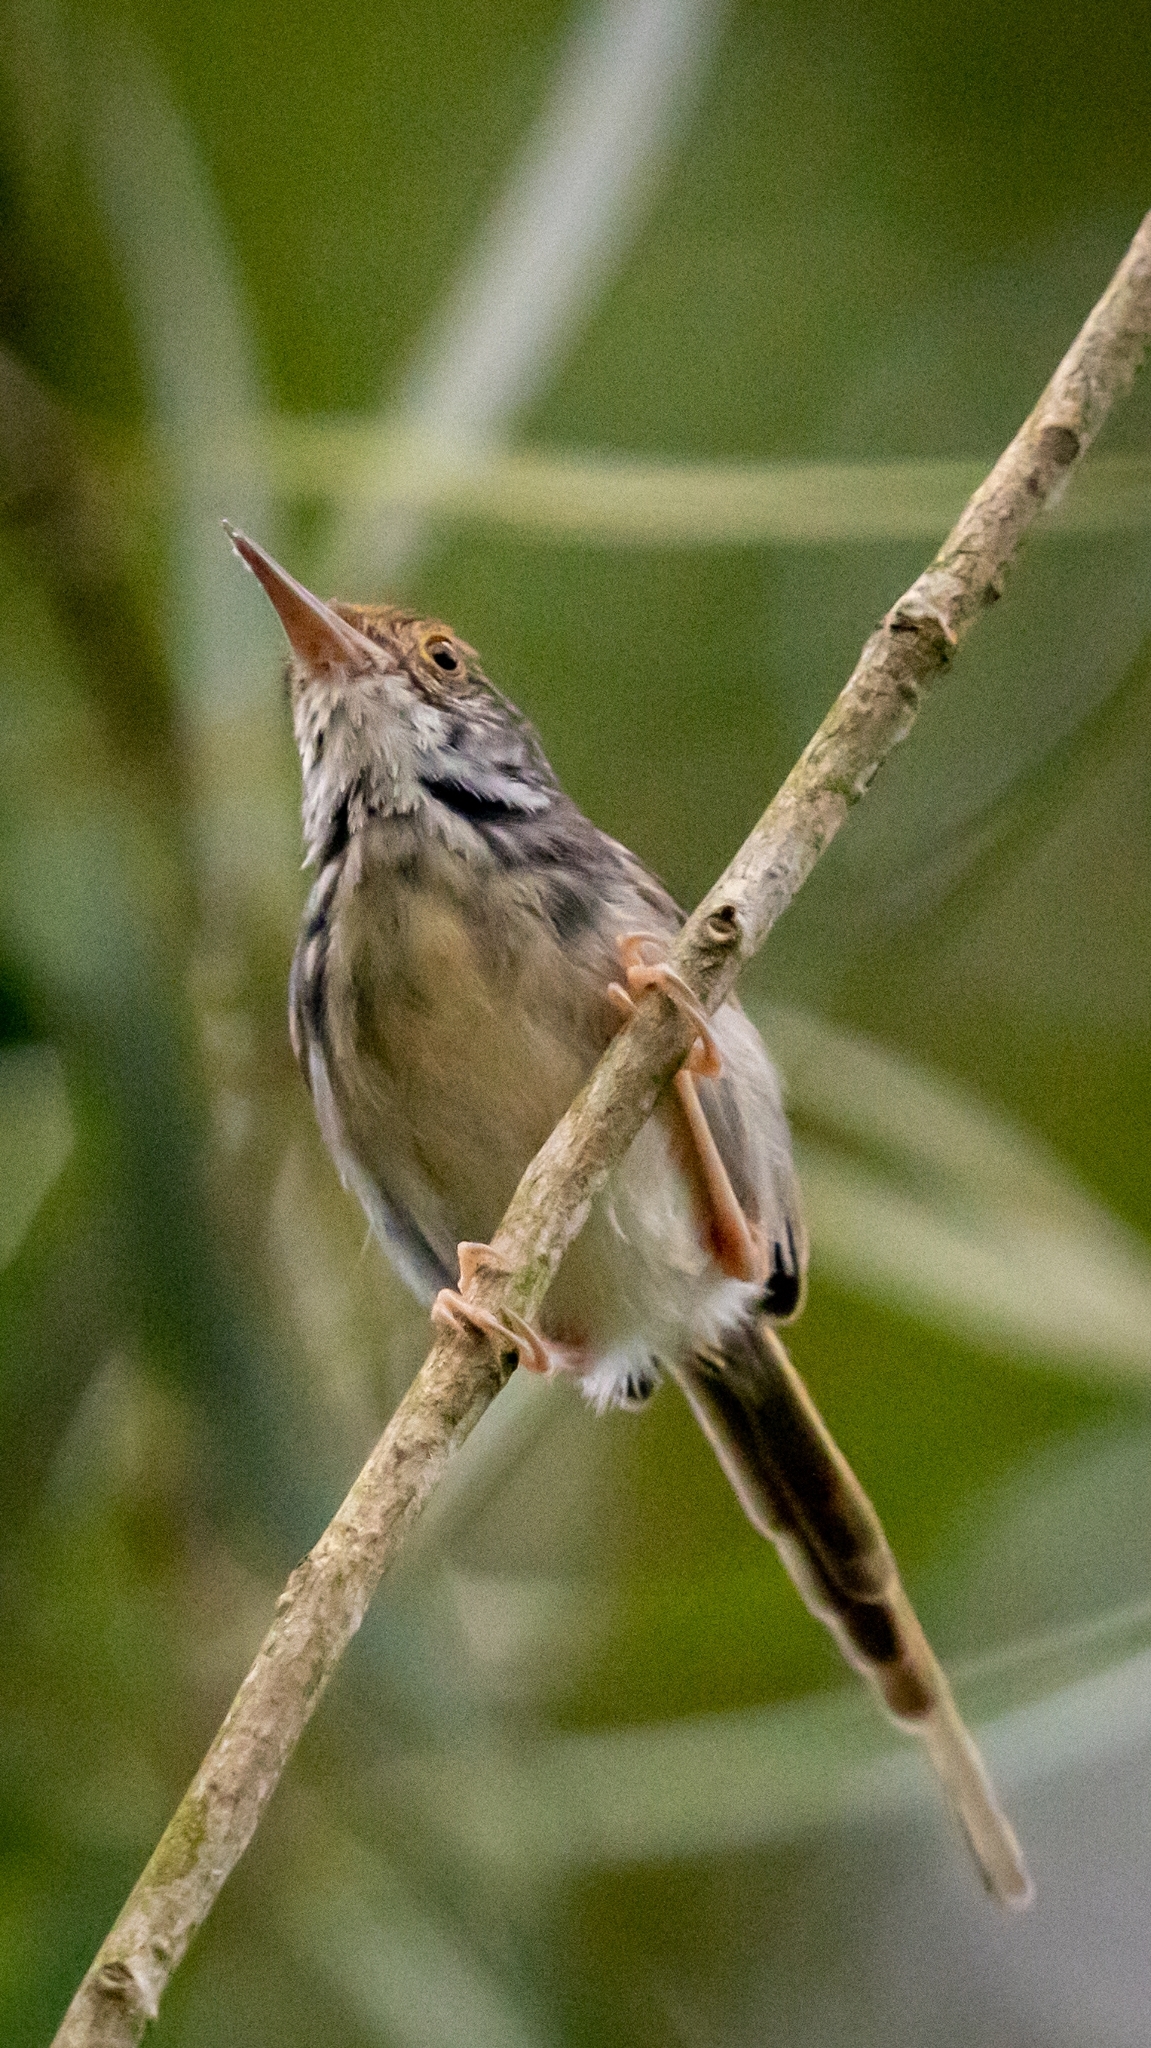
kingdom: Animalia
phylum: Chordata
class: Aves
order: Passeriformes
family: Cisticolidae
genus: Orthotomus
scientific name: Orthotomus sutorius
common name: Common tailorbird
